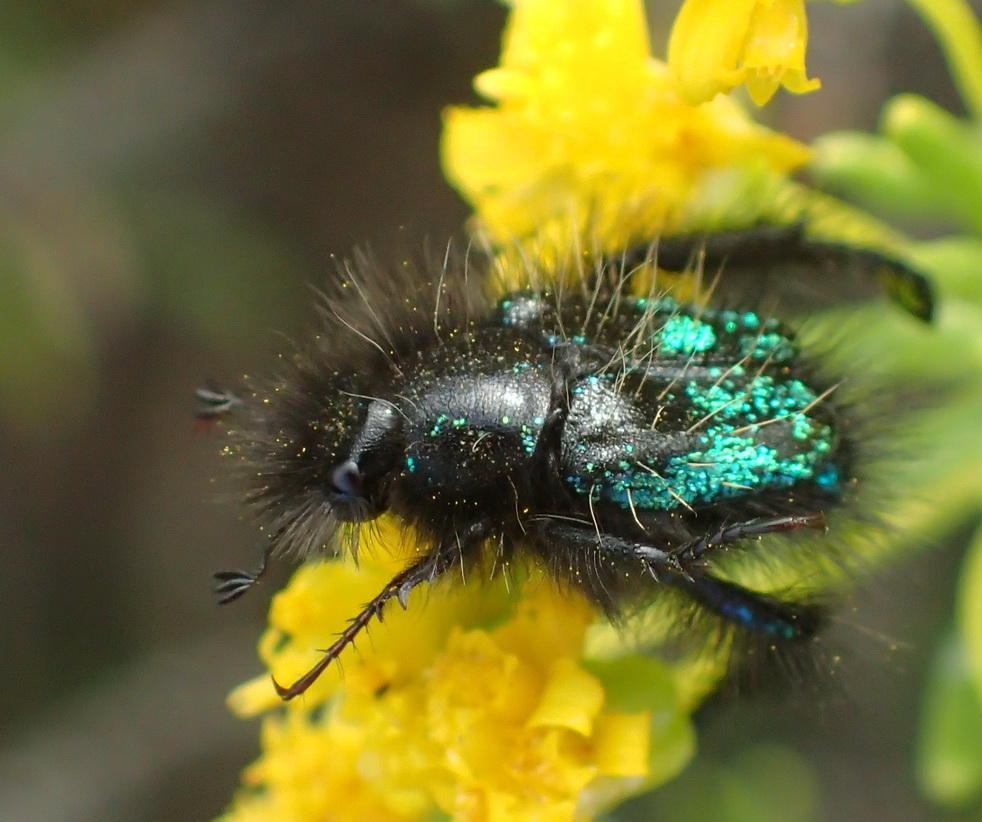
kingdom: Animalia
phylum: Arthropoda
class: Insecta
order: Coleoptera
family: Scarabaeidae
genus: Anisonyx
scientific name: Anisonyx ditus
